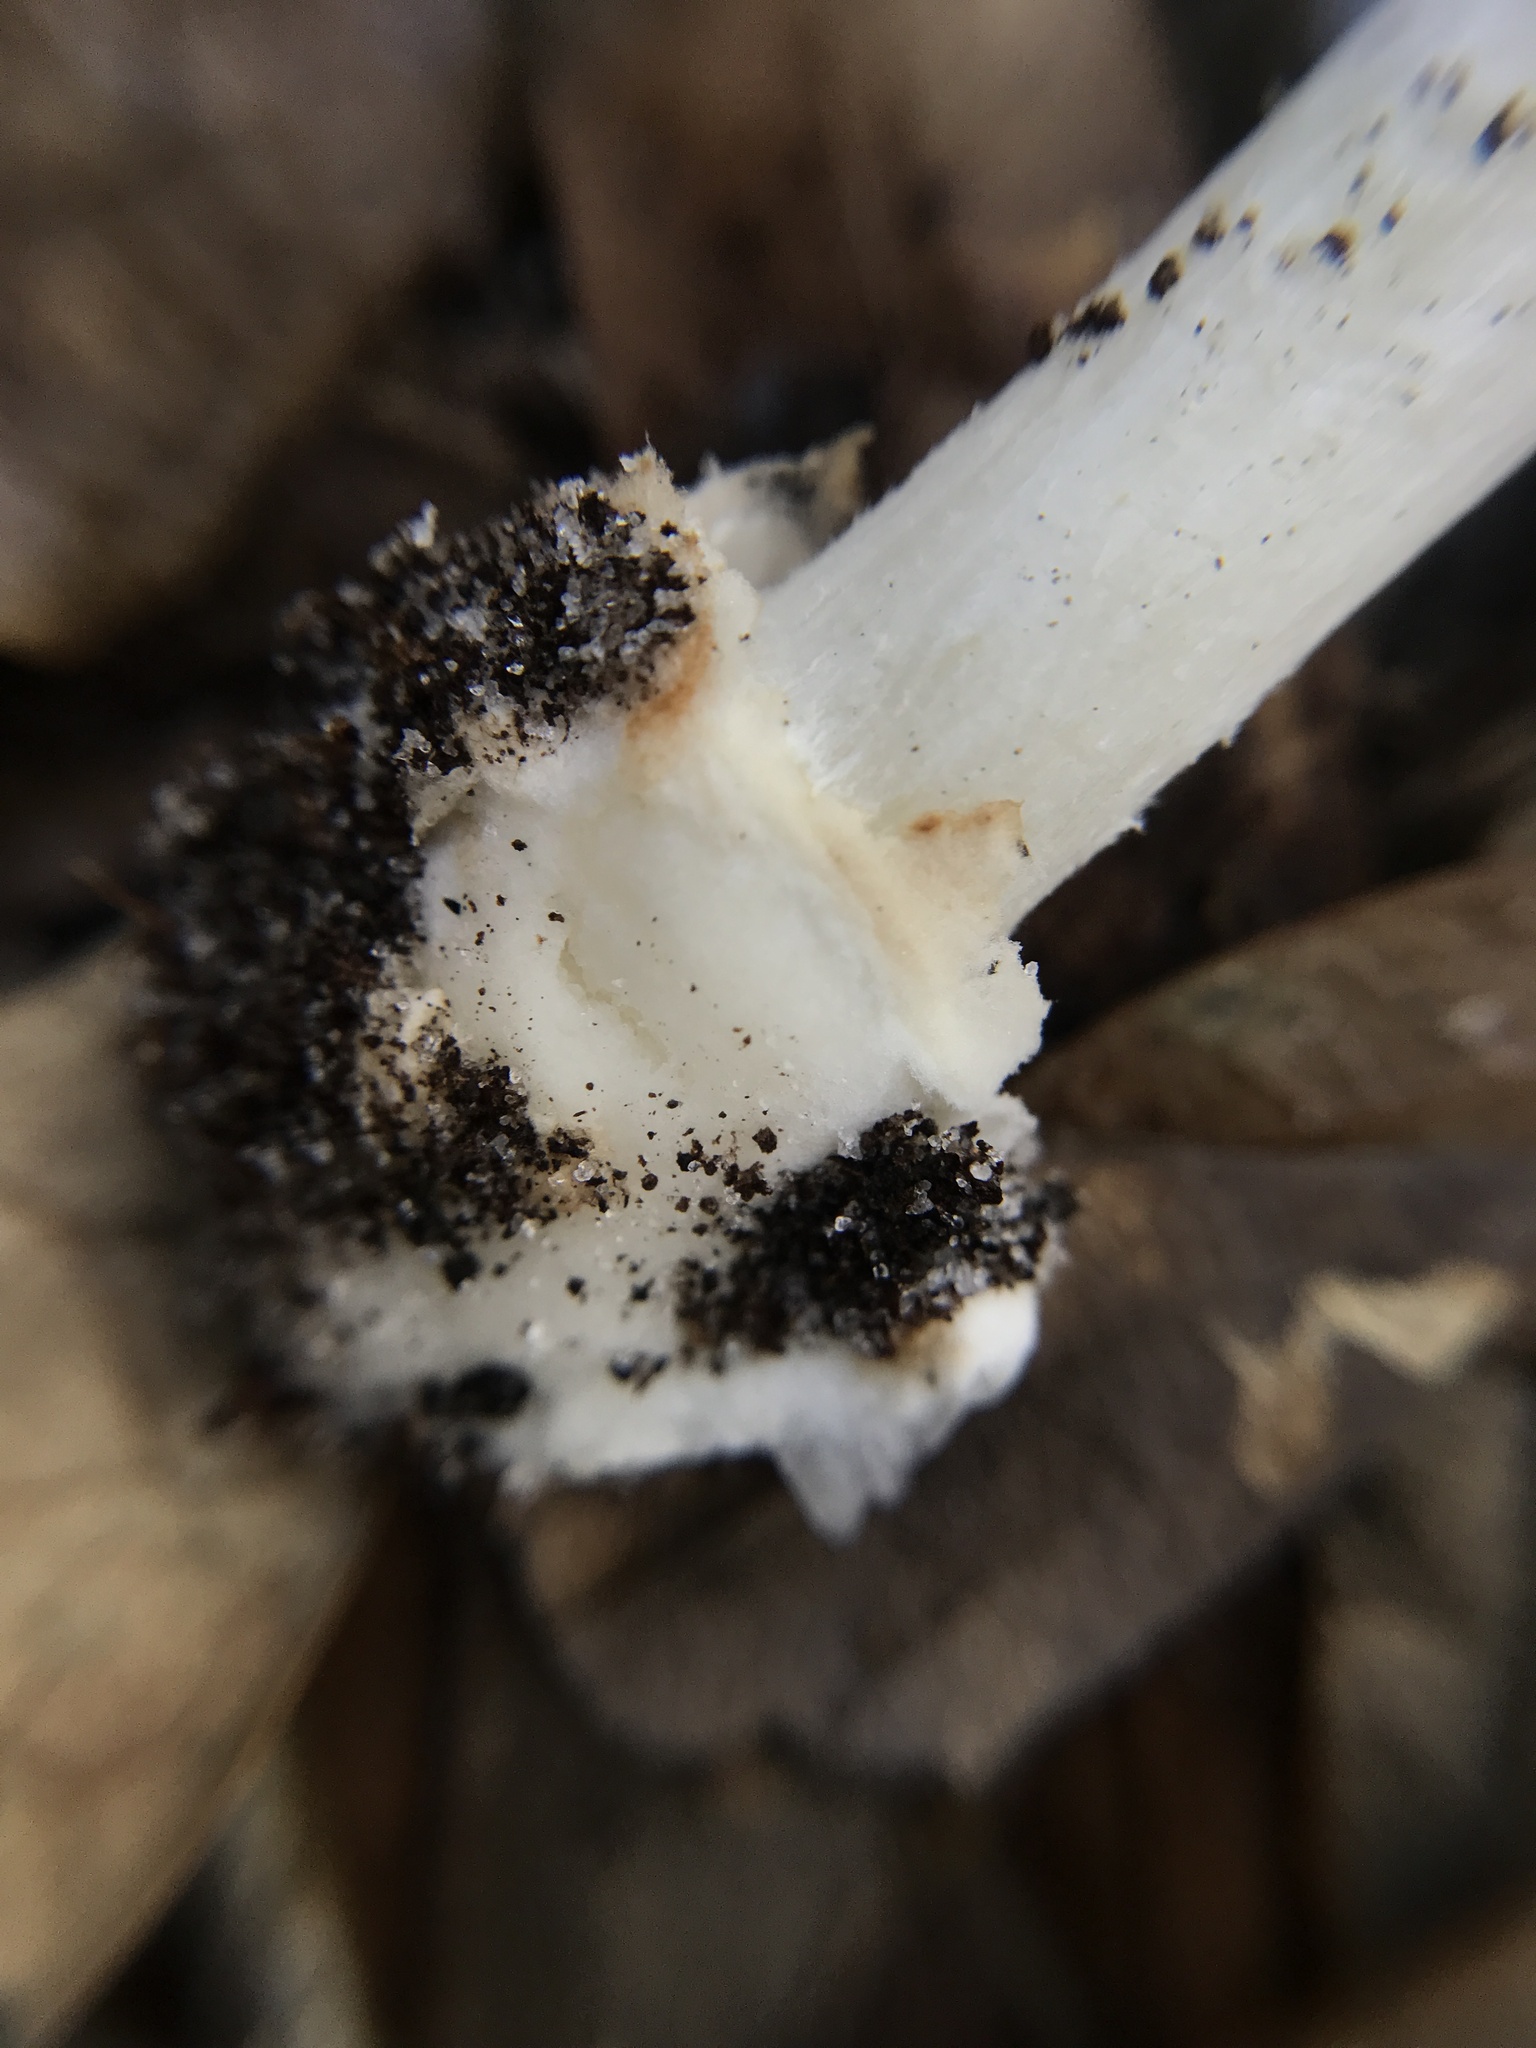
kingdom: Fungi
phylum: Basidiomycota
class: Agaricomycetes
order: Agaricales
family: Amanitaceae
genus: Amanita
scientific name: Amanita solaniolens
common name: Old potato amanita
